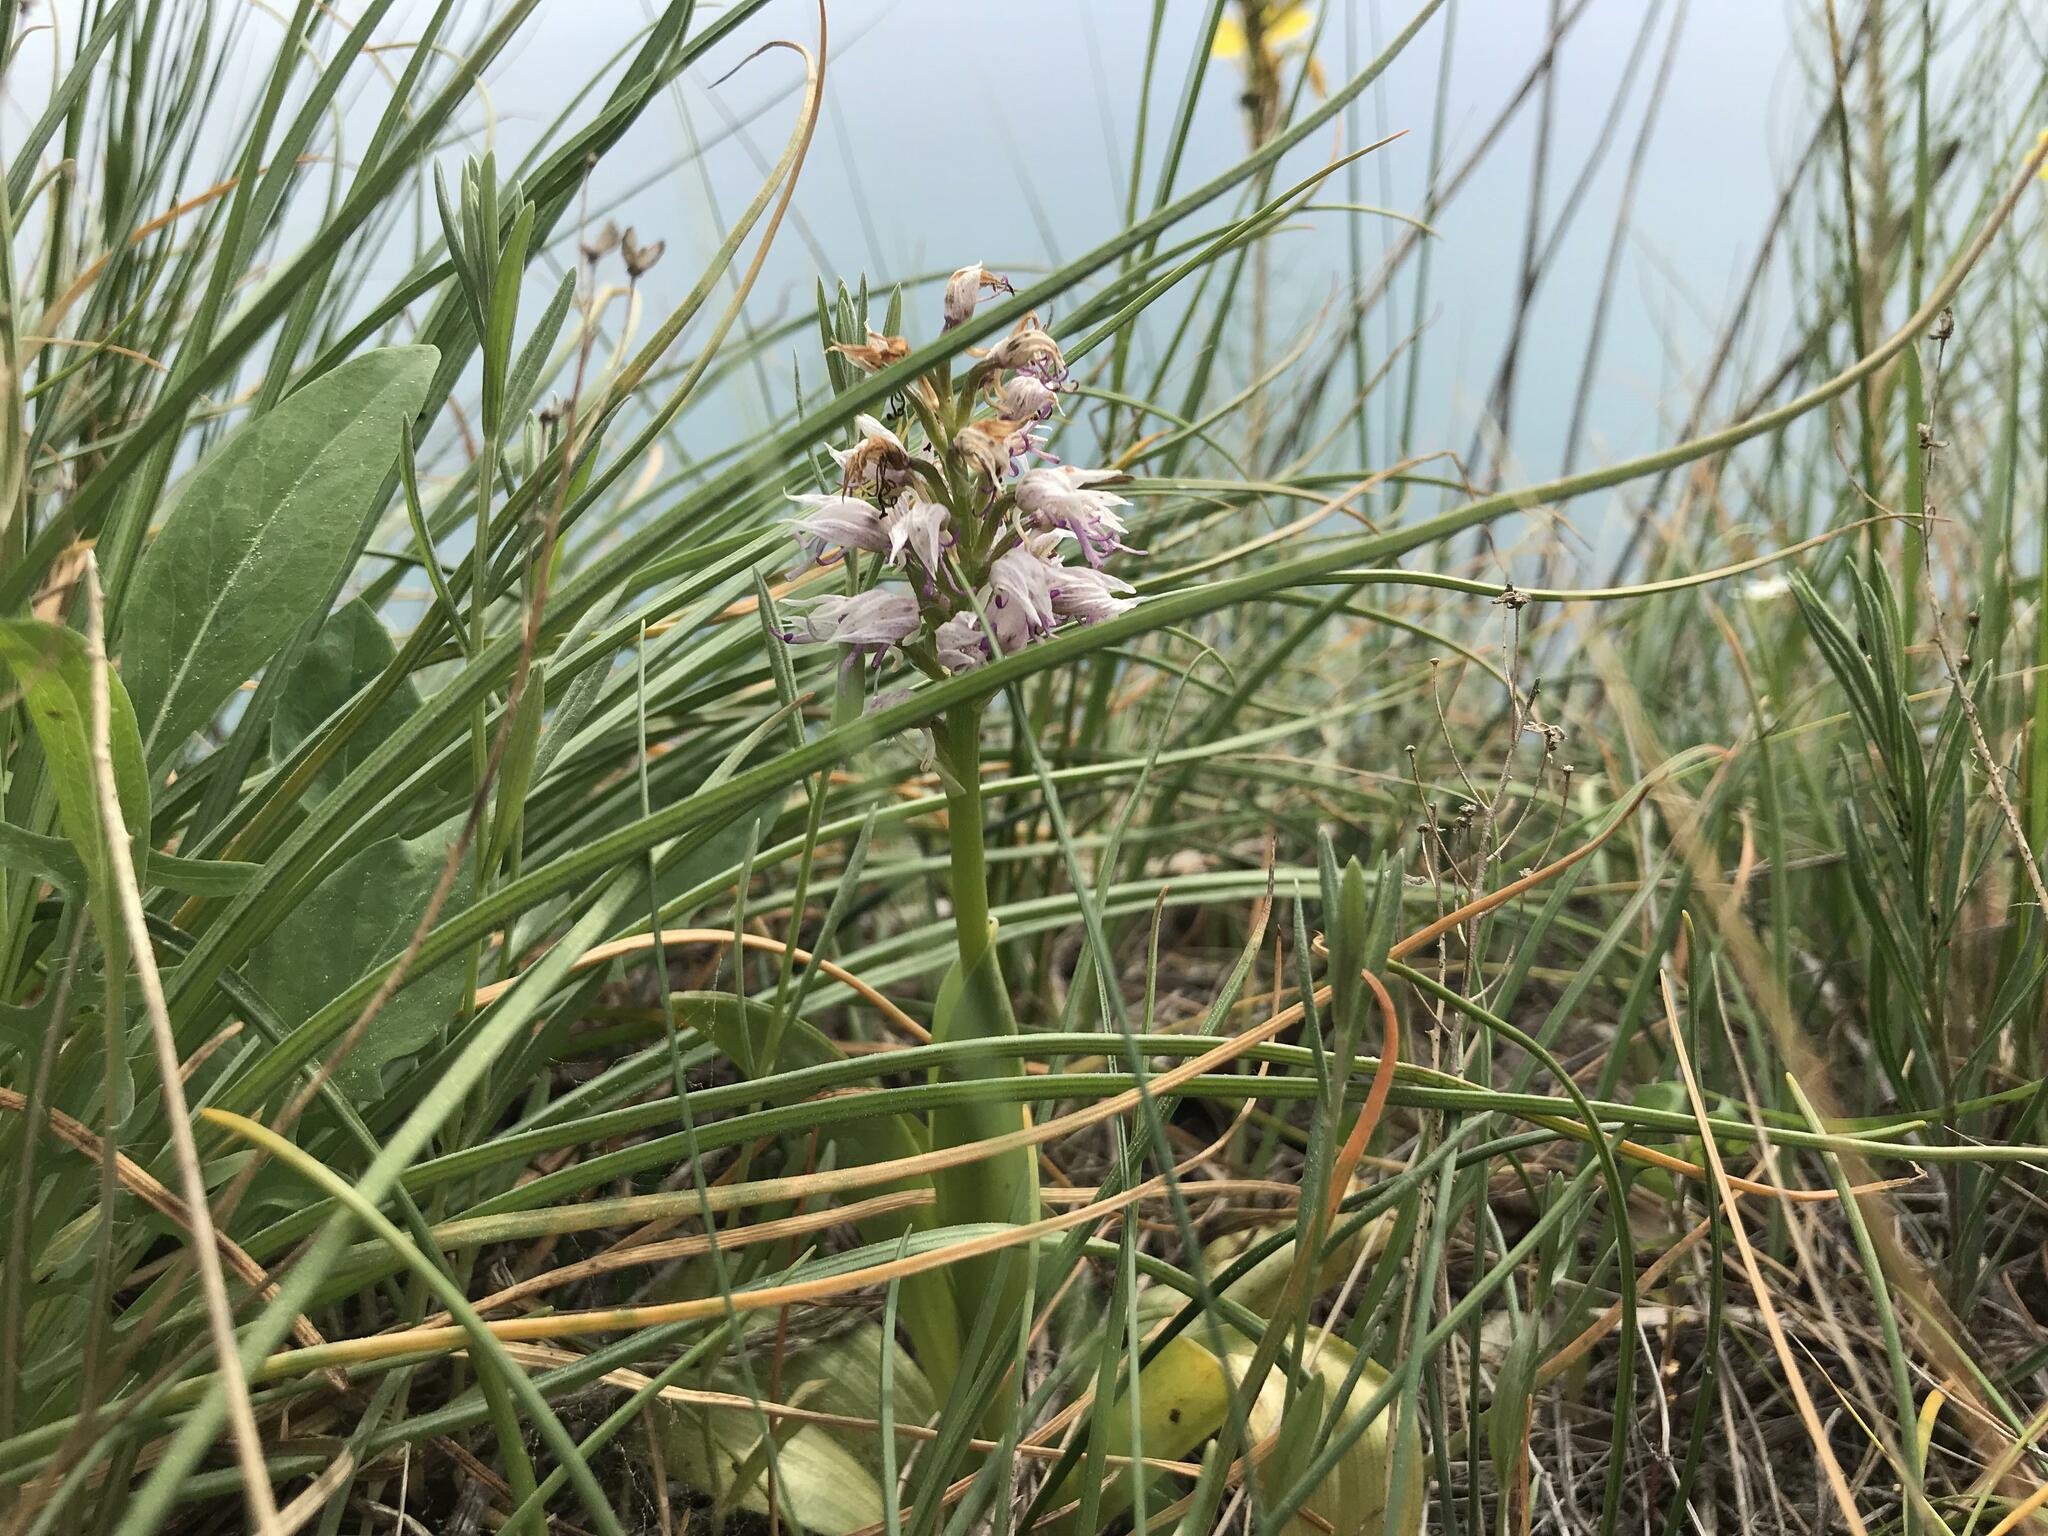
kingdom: Plantae
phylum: Tracheophyta
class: Liliopsida
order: Asparagales
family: Orchidaceae
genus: Orchis
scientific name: Orchis simia
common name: Monkey orchid
